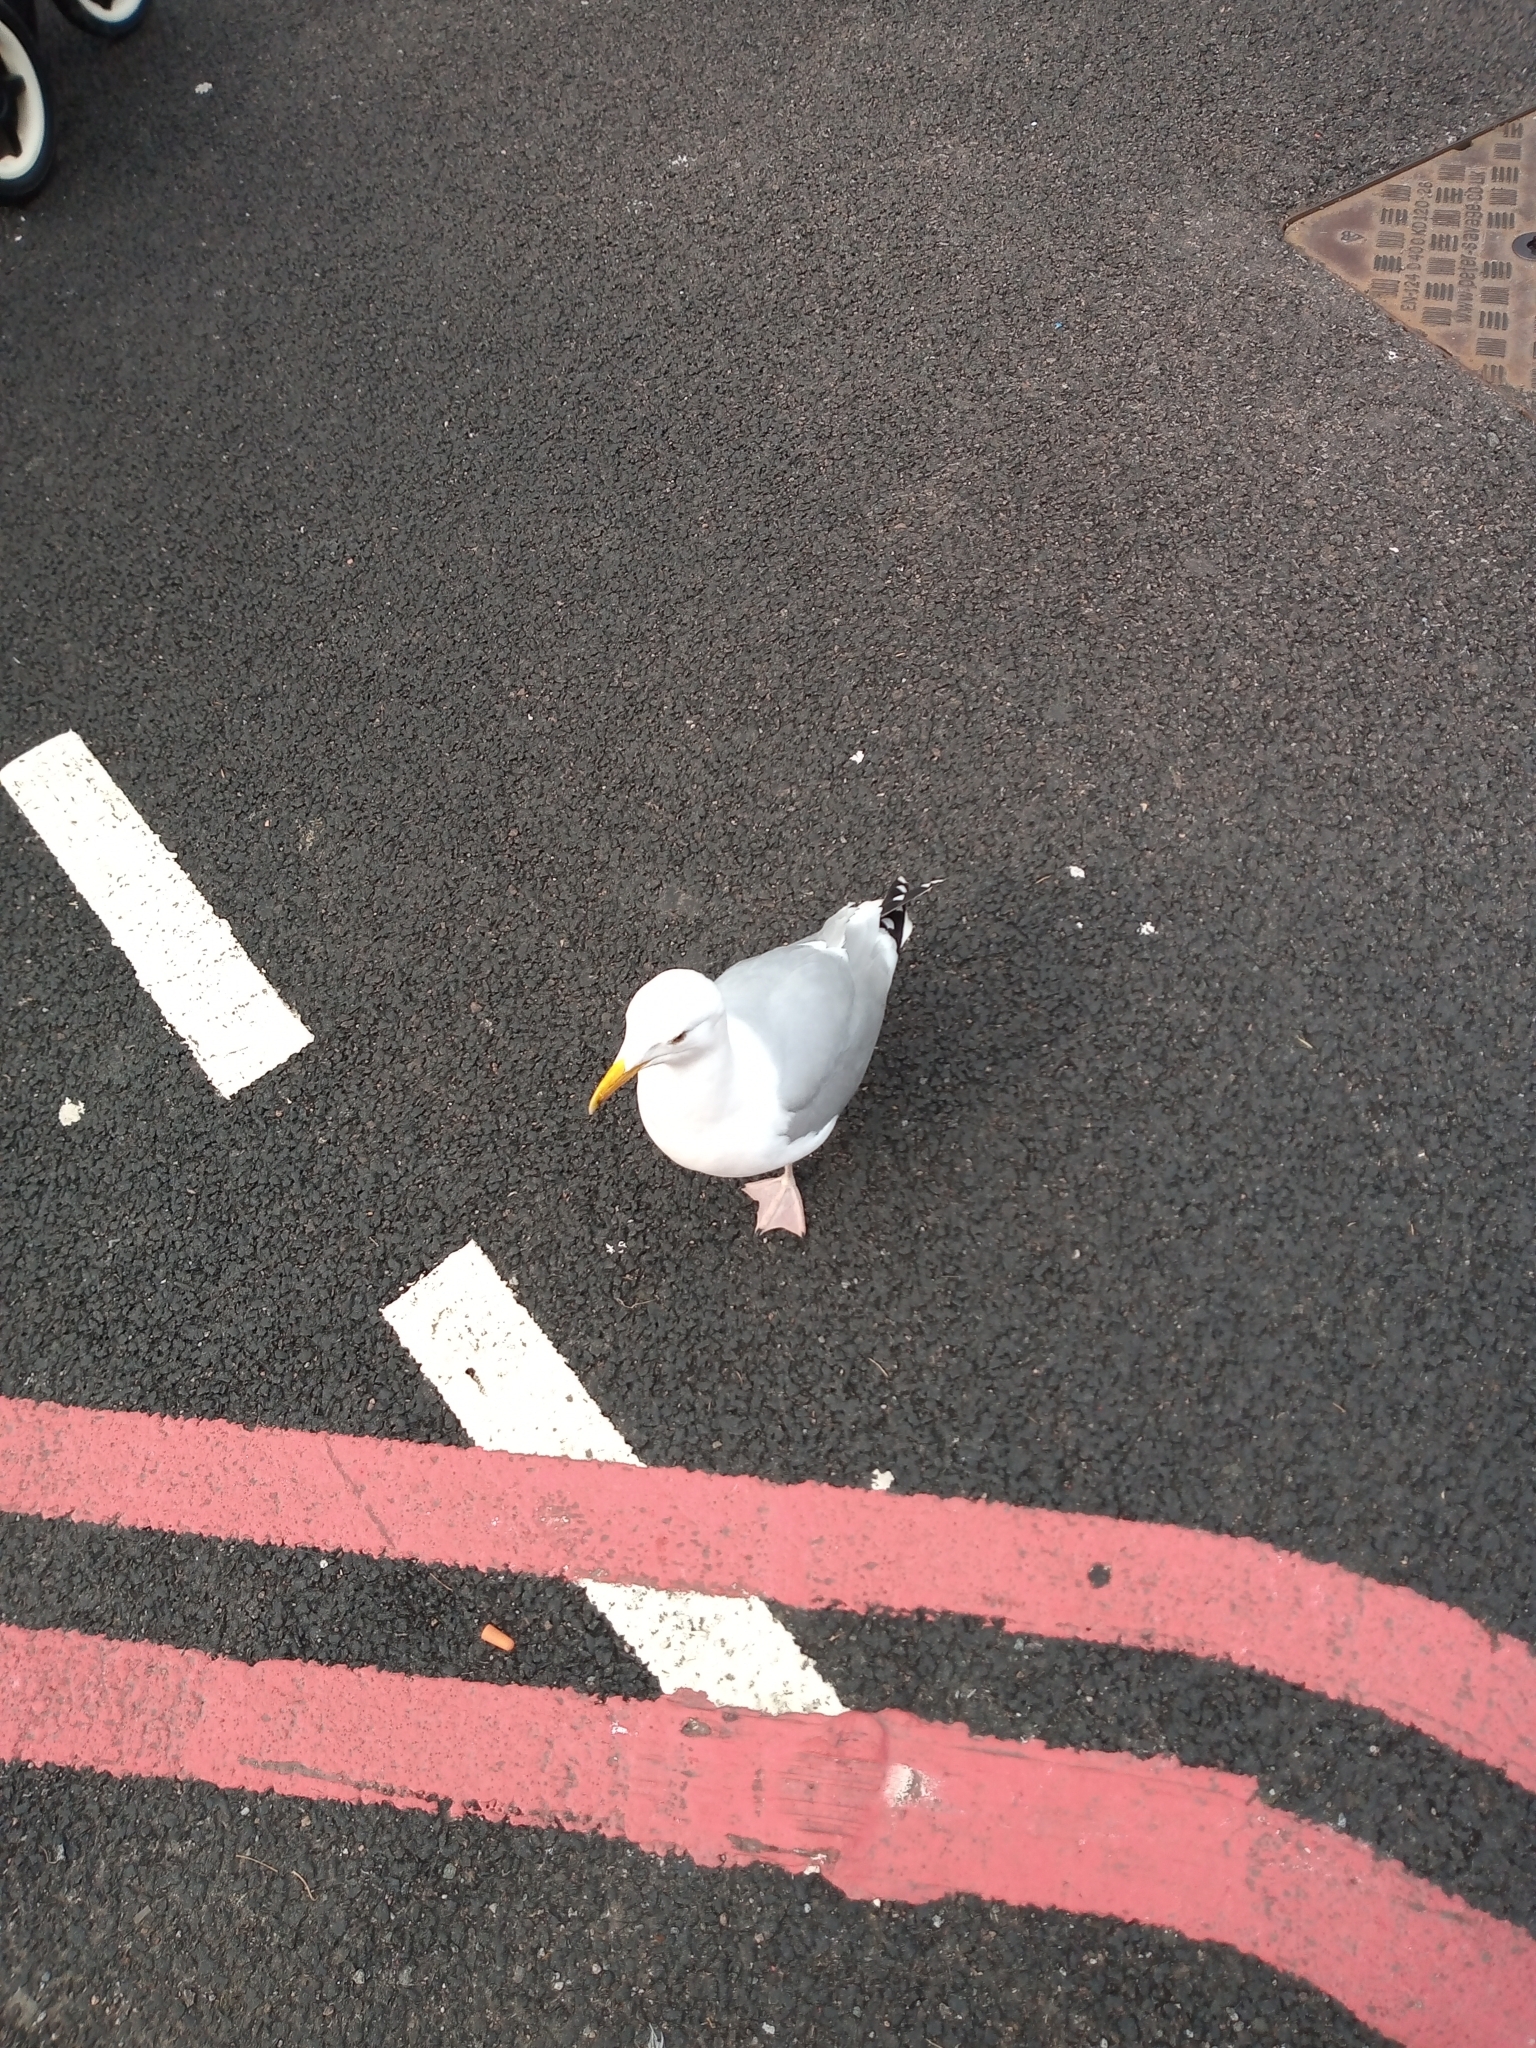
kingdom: Animalia
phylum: Chordata
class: Aves
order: Charadriiformes
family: Laridae
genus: Larus
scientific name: Larus argentatus
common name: Herring gull
